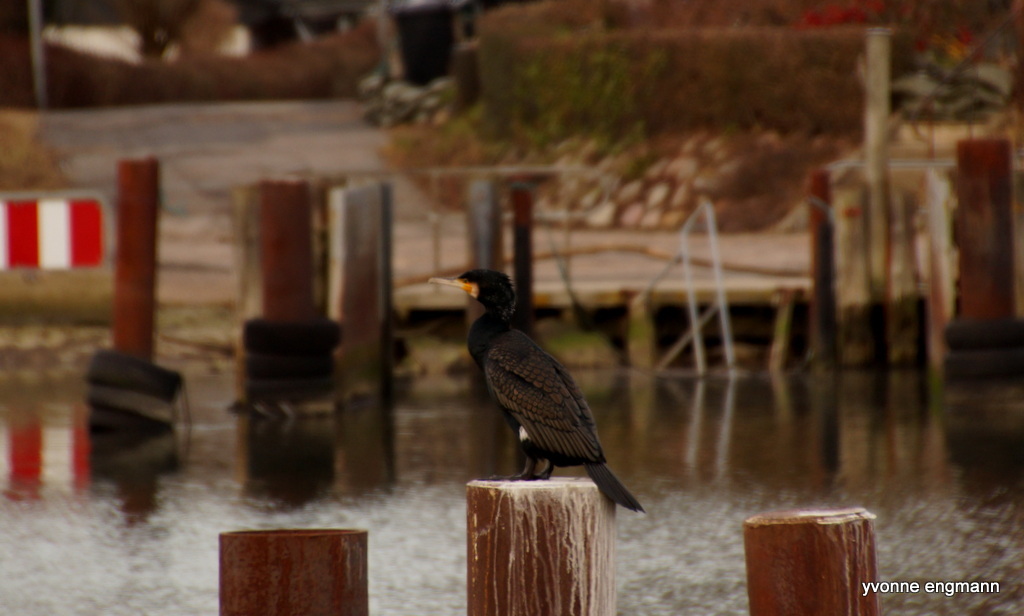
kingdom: Animalia
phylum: Chordata
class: Aves
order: Suliformes
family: Phalacrocoracidae
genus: Phalacrocorax
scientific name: Phalacrocorax carbo
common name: Great cormorant
